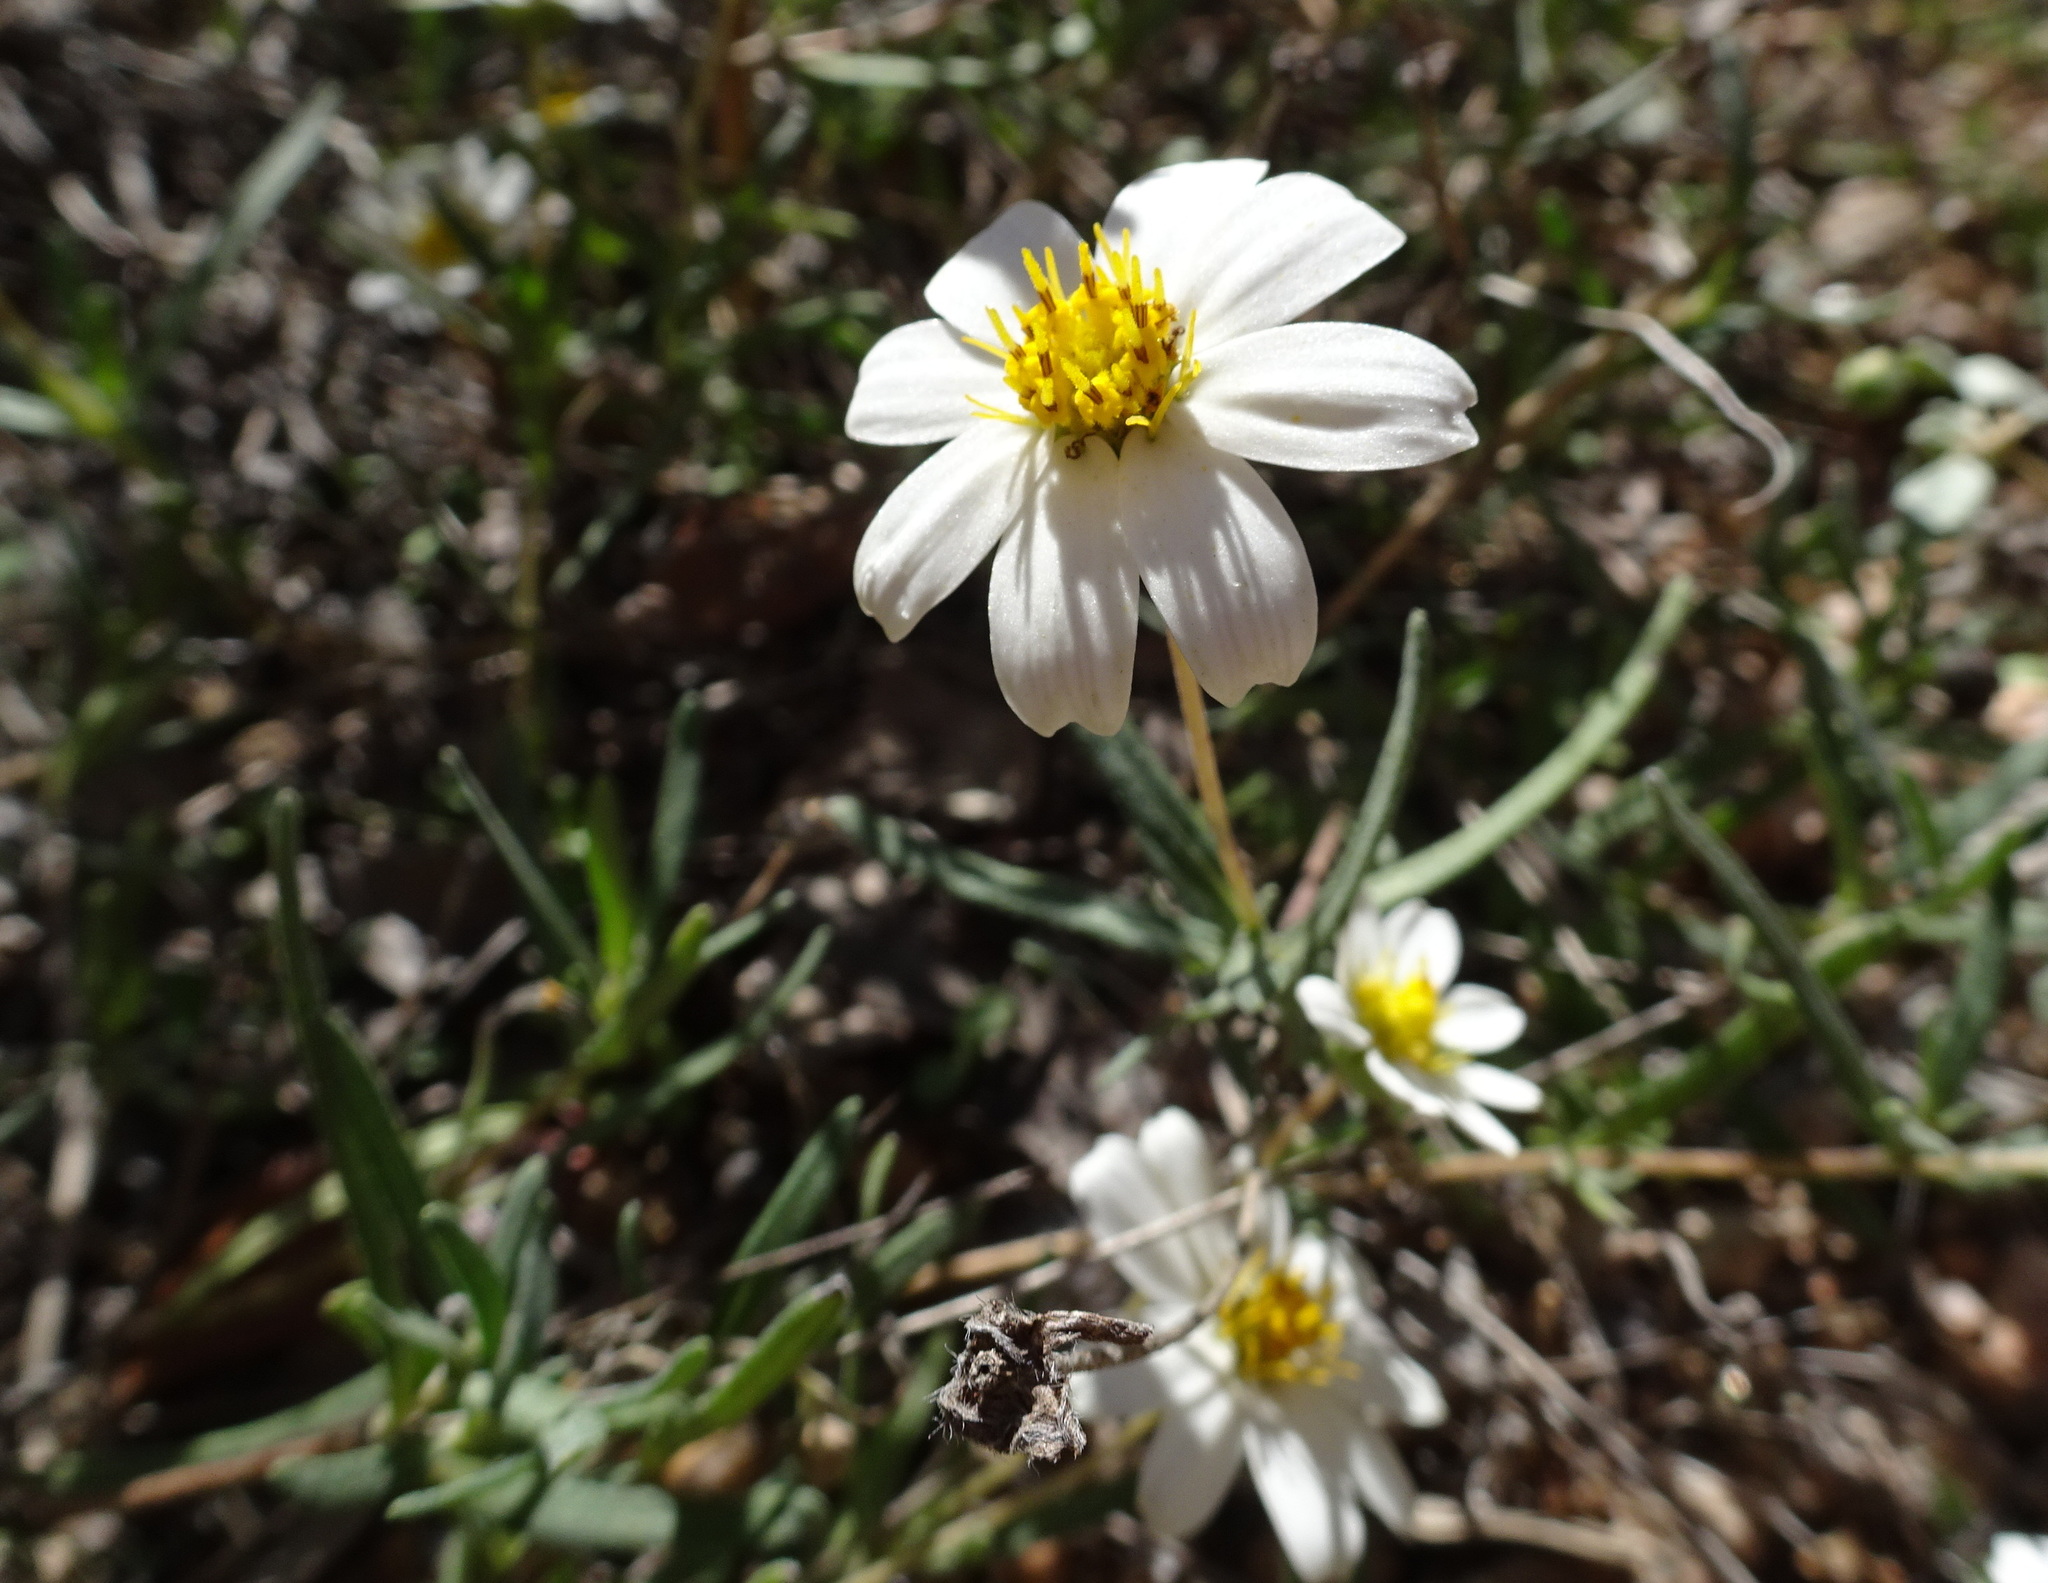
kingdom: Plantae
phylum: Tracheophyta
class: Magnoliopsida
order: Asterales
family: Asteraceae
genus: Melampodium
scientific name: Melampodium leucanthum
